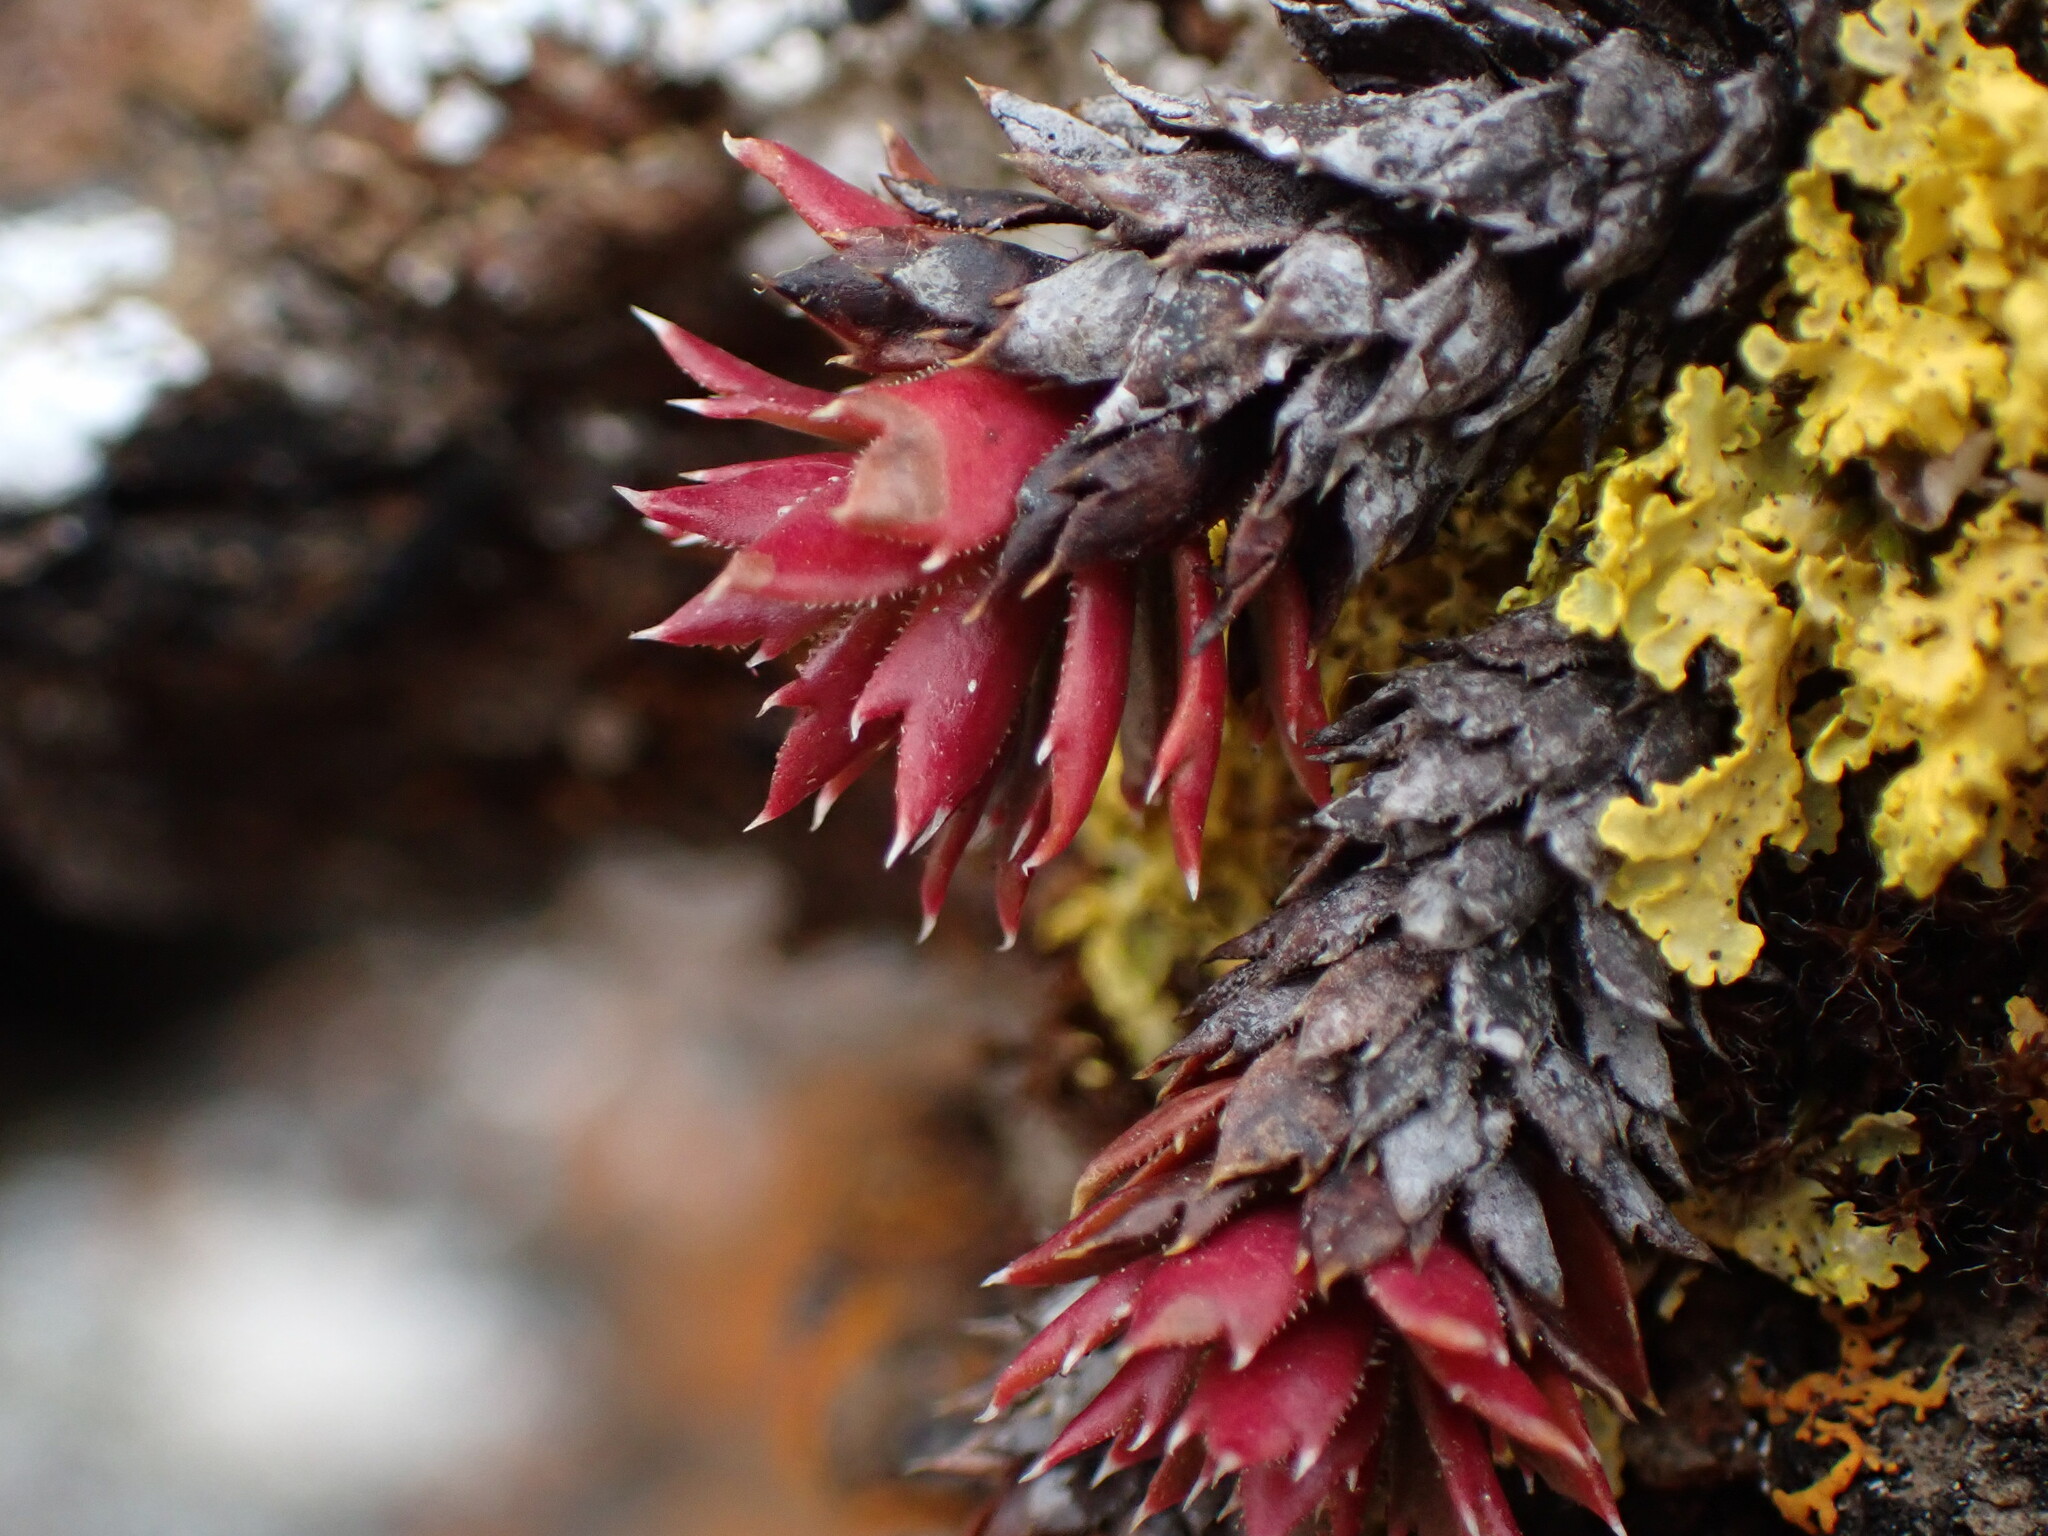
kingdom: Plantae
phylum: Tracheophyta
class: Magnoliopsida
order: Saxifragales
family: Saxifragaceae
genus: Saxifraga
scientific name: Saxifraga tricuspidata
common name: Prickly saxifrage
